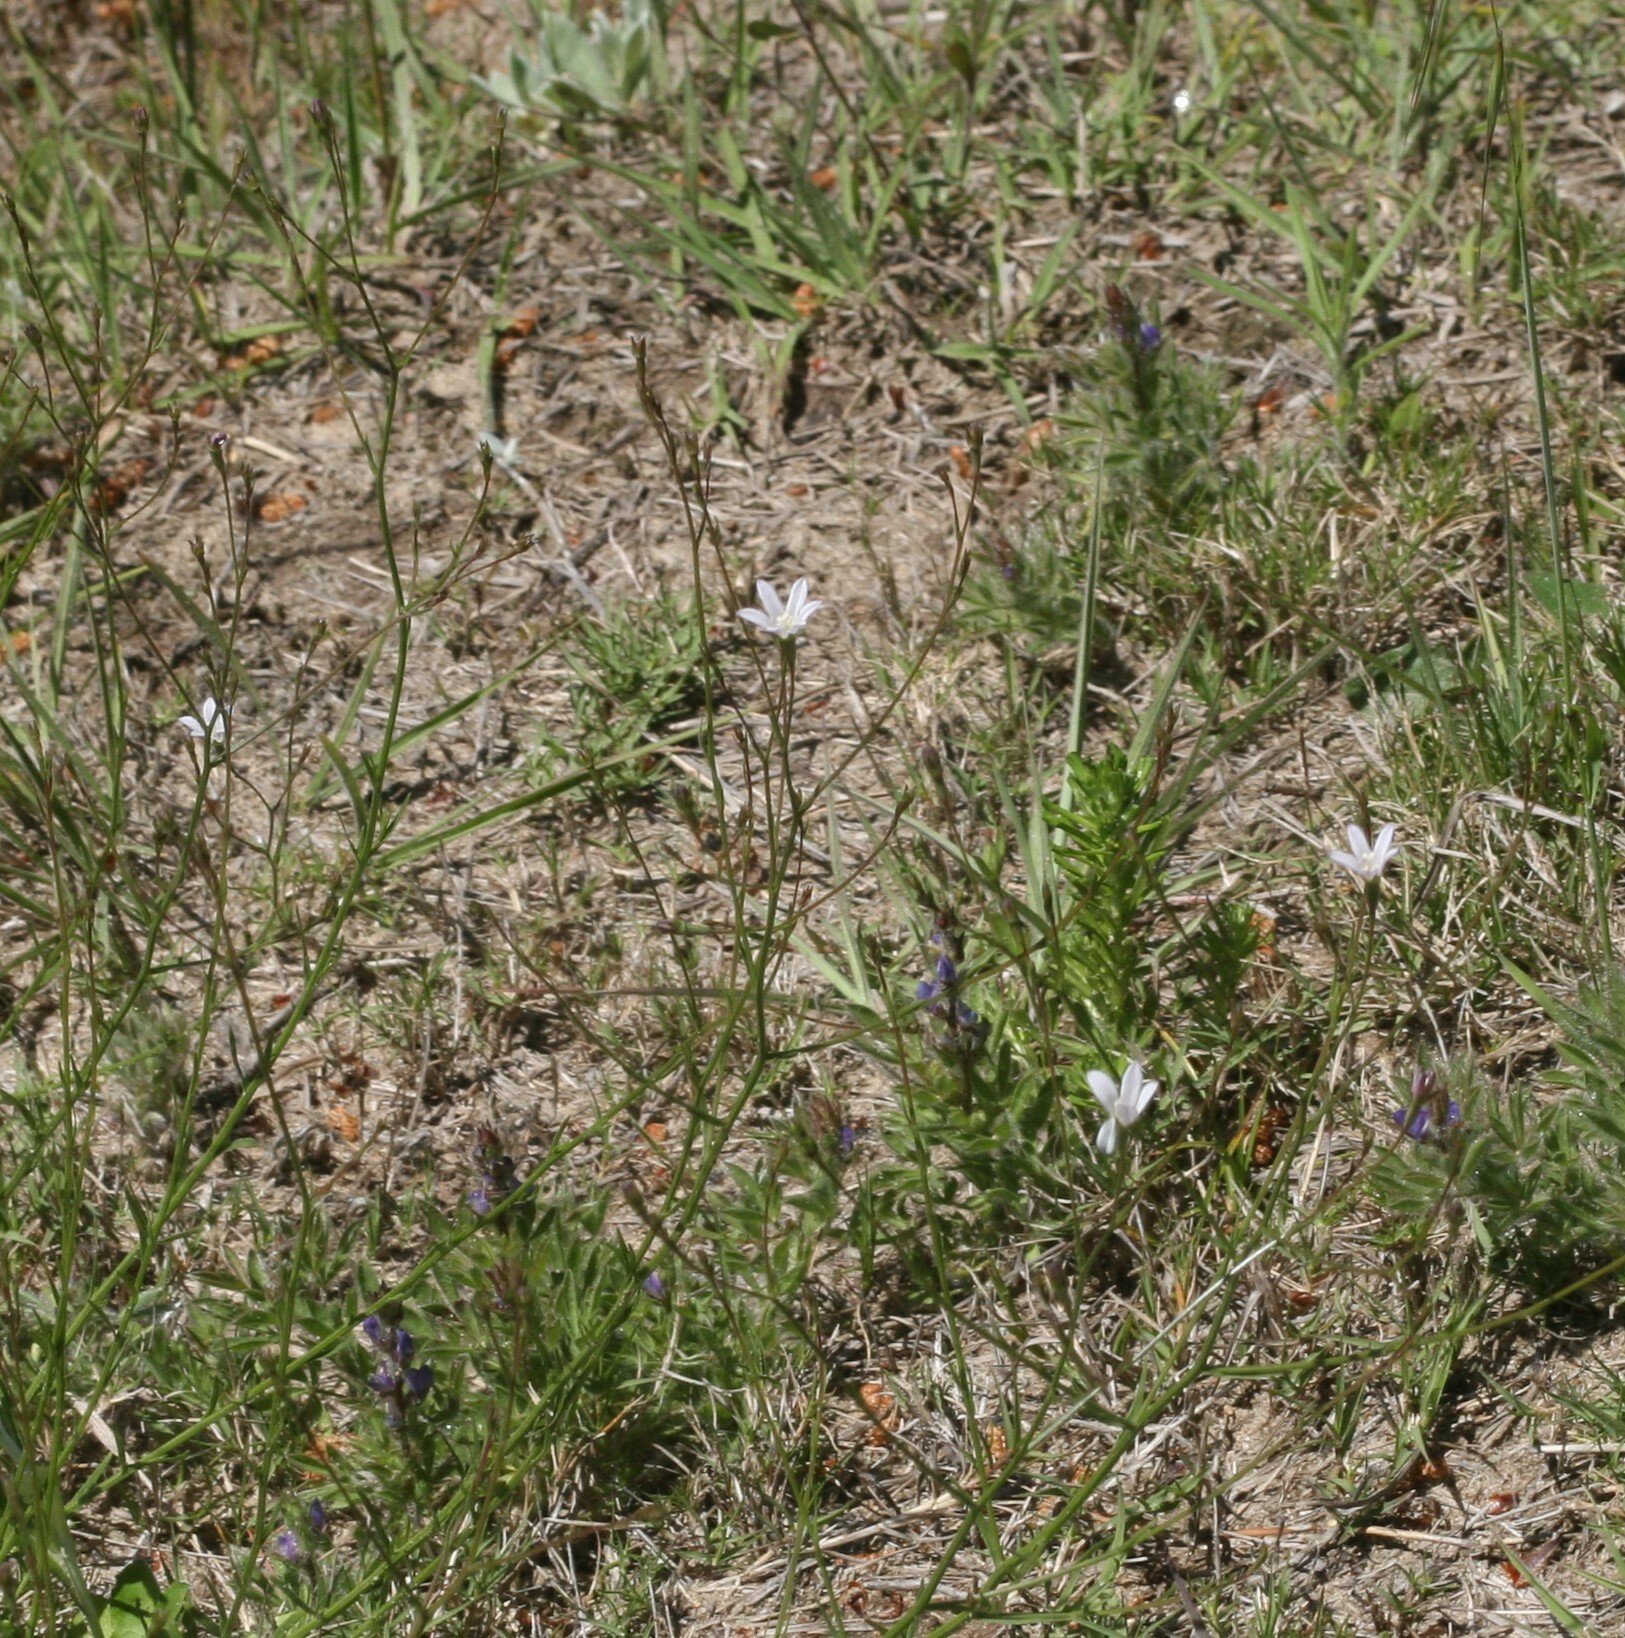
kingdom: Plantae
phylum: Tracheophyta
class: Magnoliopsida
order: Asterales
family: Campanulaceae
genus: Wahlenbergia
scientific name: Wahlenbergia linarioides
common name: Tuffybells
